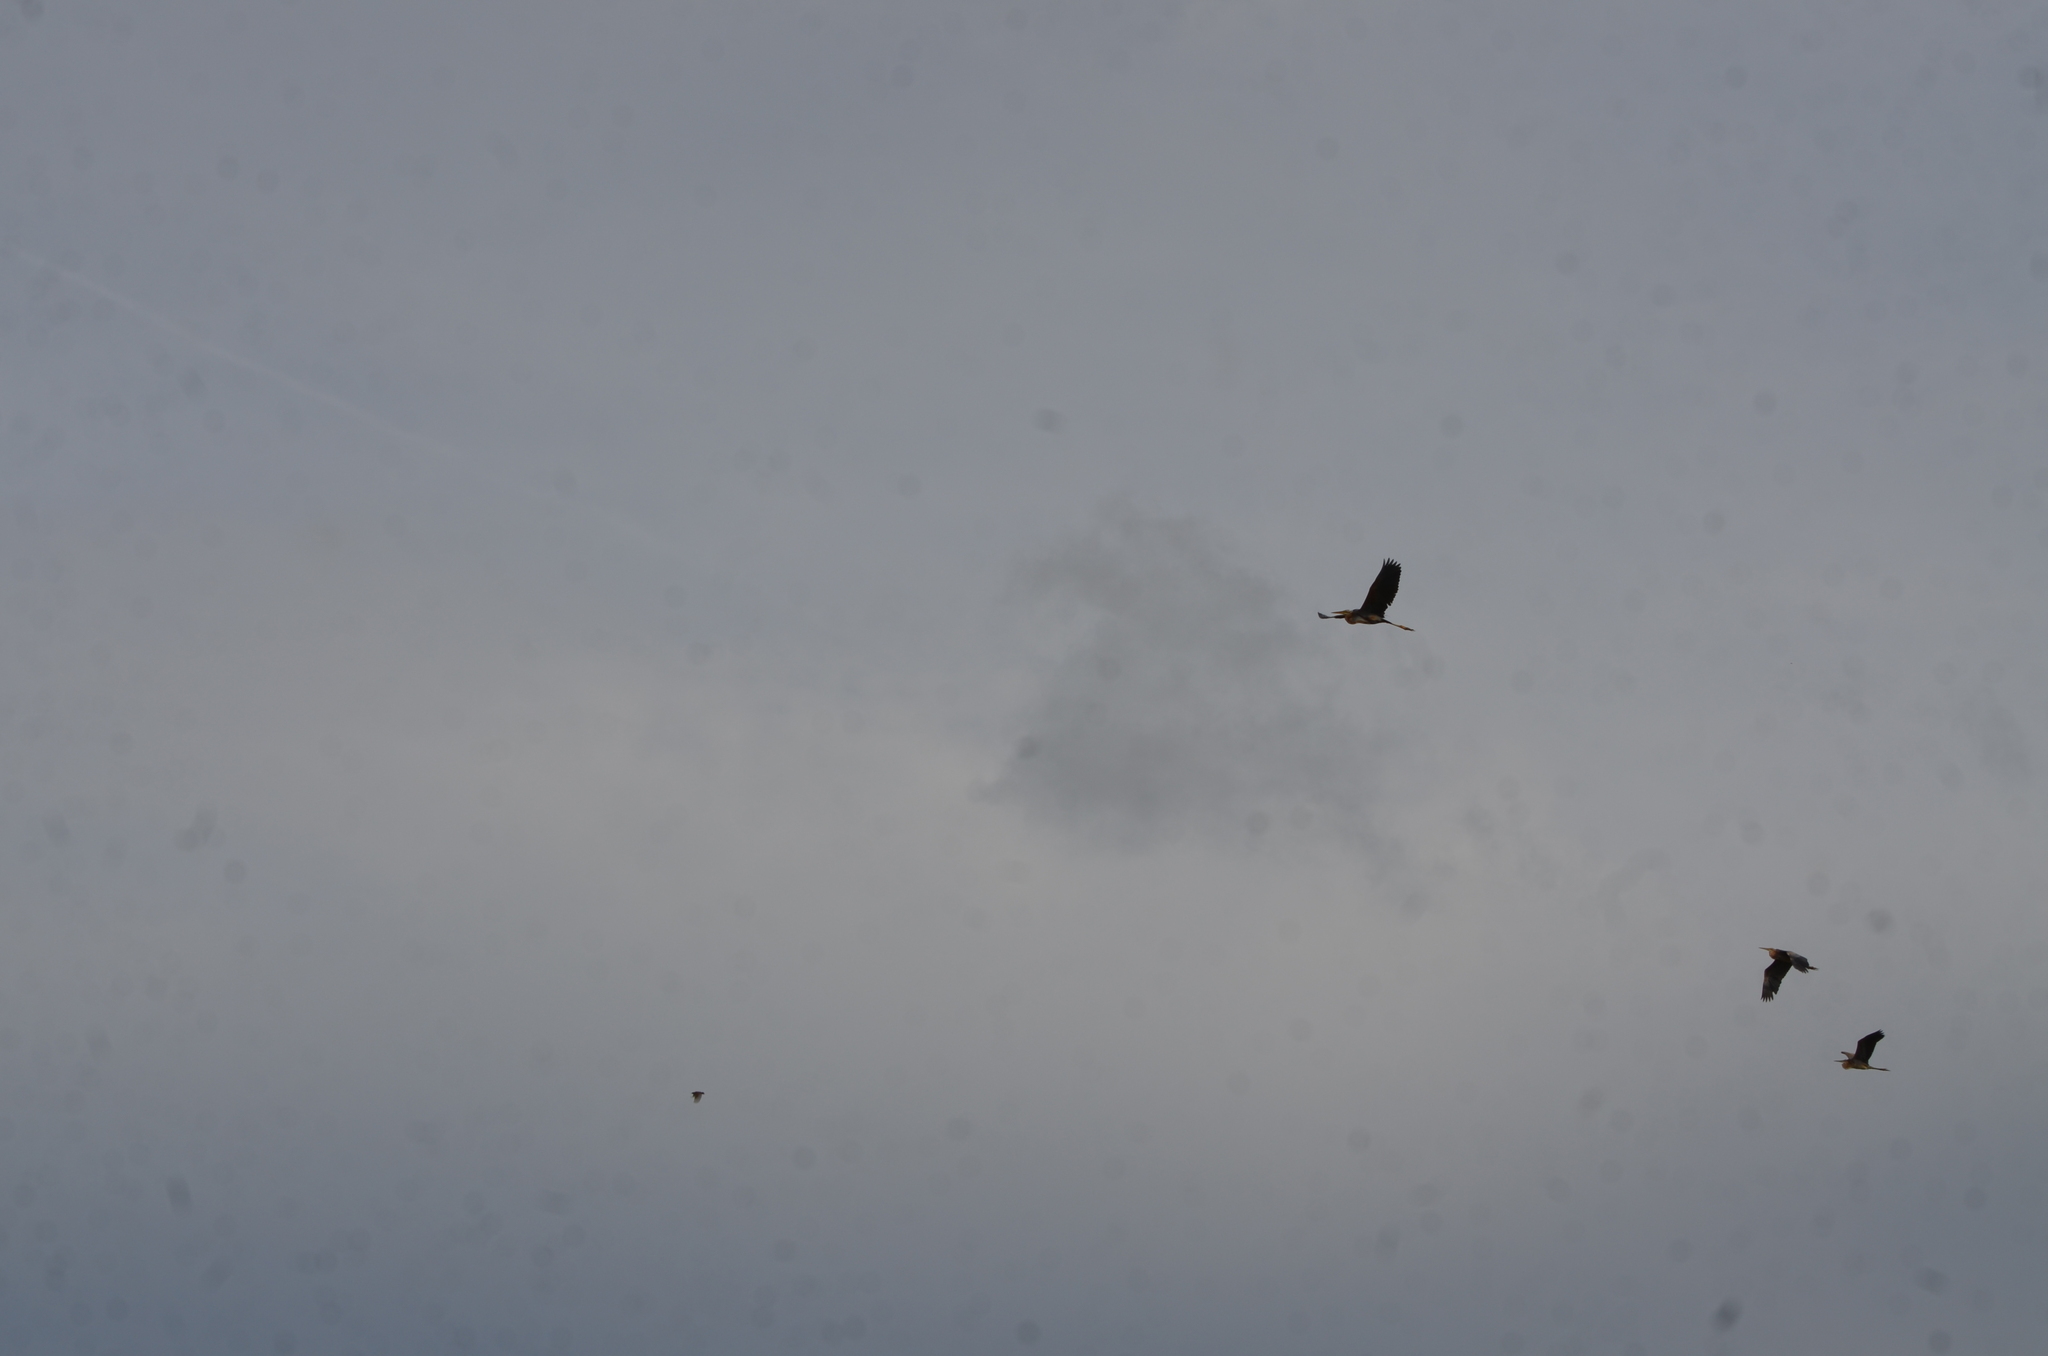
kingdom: Animalia
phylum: Chordata
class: Aves
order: Pelecaniformes
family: Ardeidae
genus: Ardea
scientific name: Ardea purpurea
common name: Purple heron
